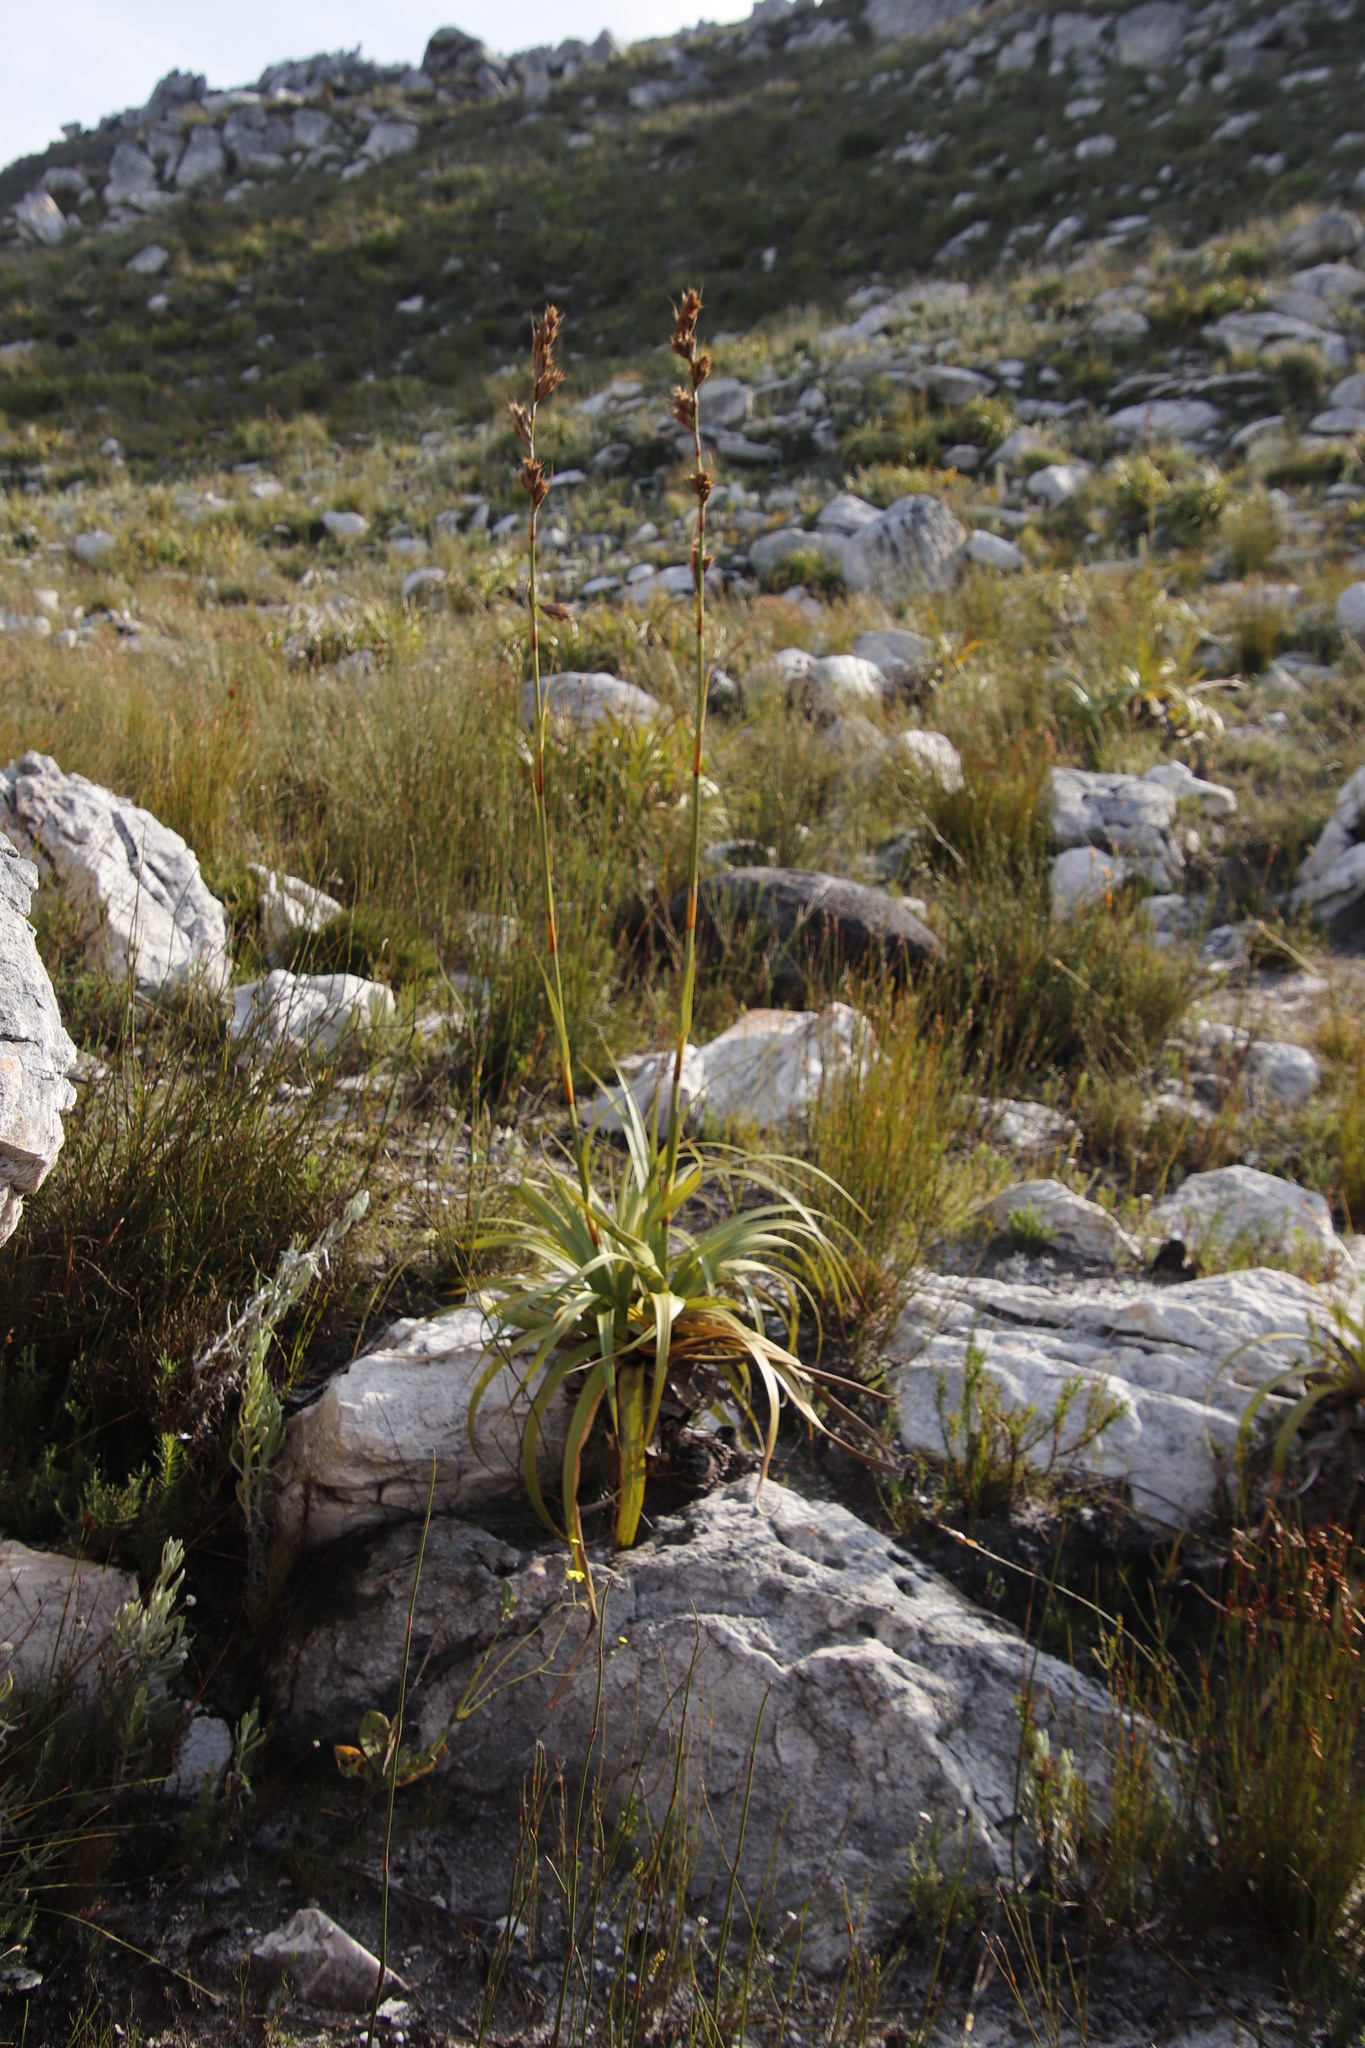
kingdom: Plantae
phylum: Tracheophyta
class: Liliopsida
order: Poales
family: Cyperaceae
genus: Tetraria
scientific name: Tetraria thermalis
